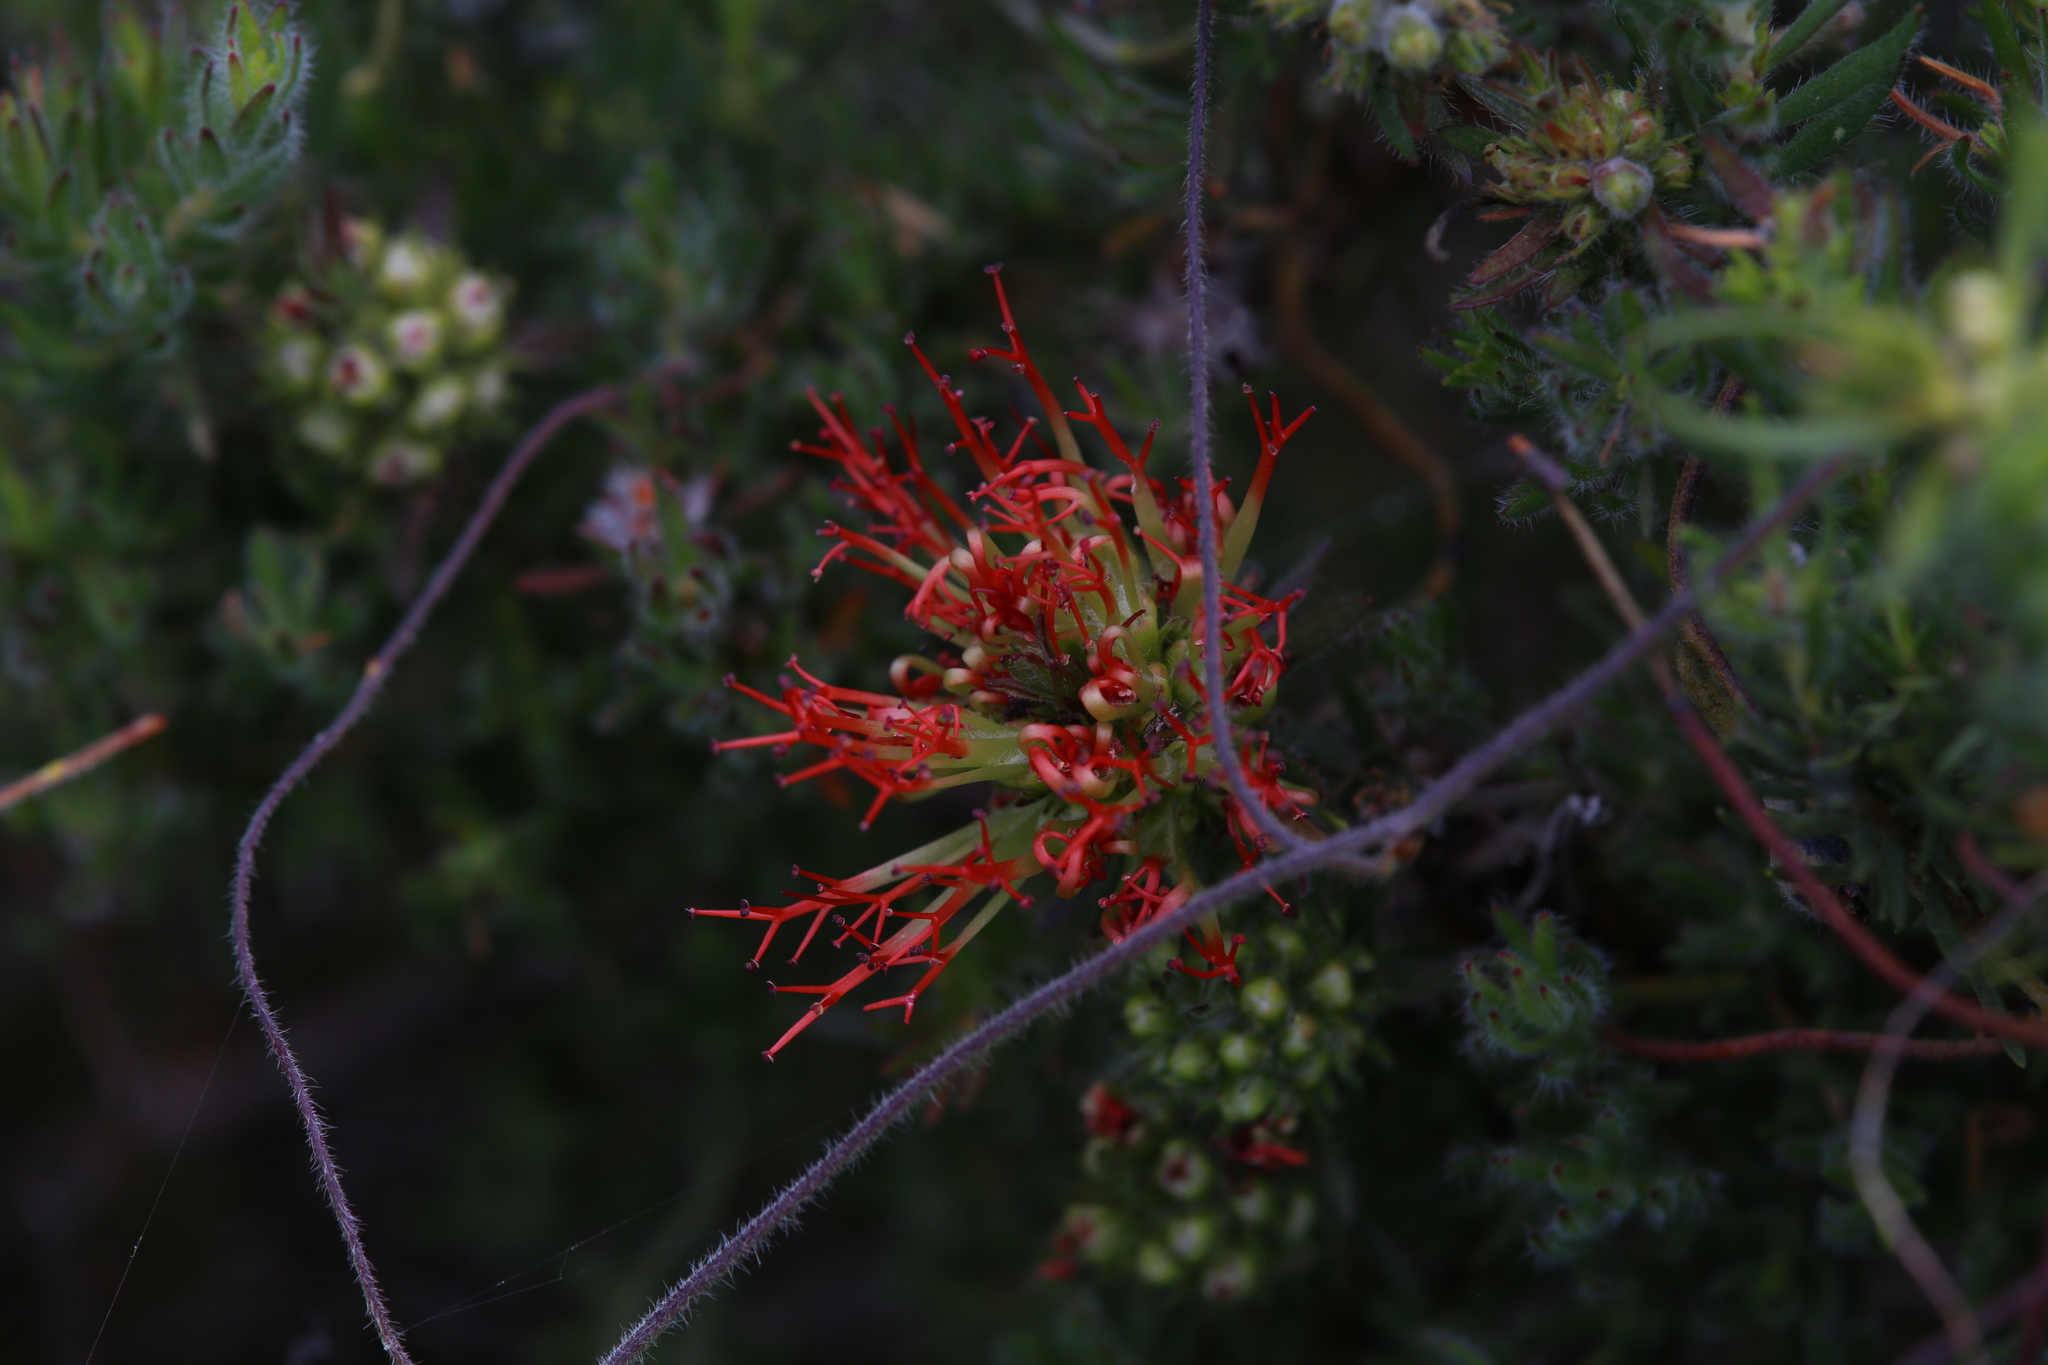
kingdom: Plantae
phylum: Tracheophyta
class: Magnoliopsida
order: Myrtales
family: Myrtaceae
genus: Melaleuca
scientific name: Melaleuca macrostemon
